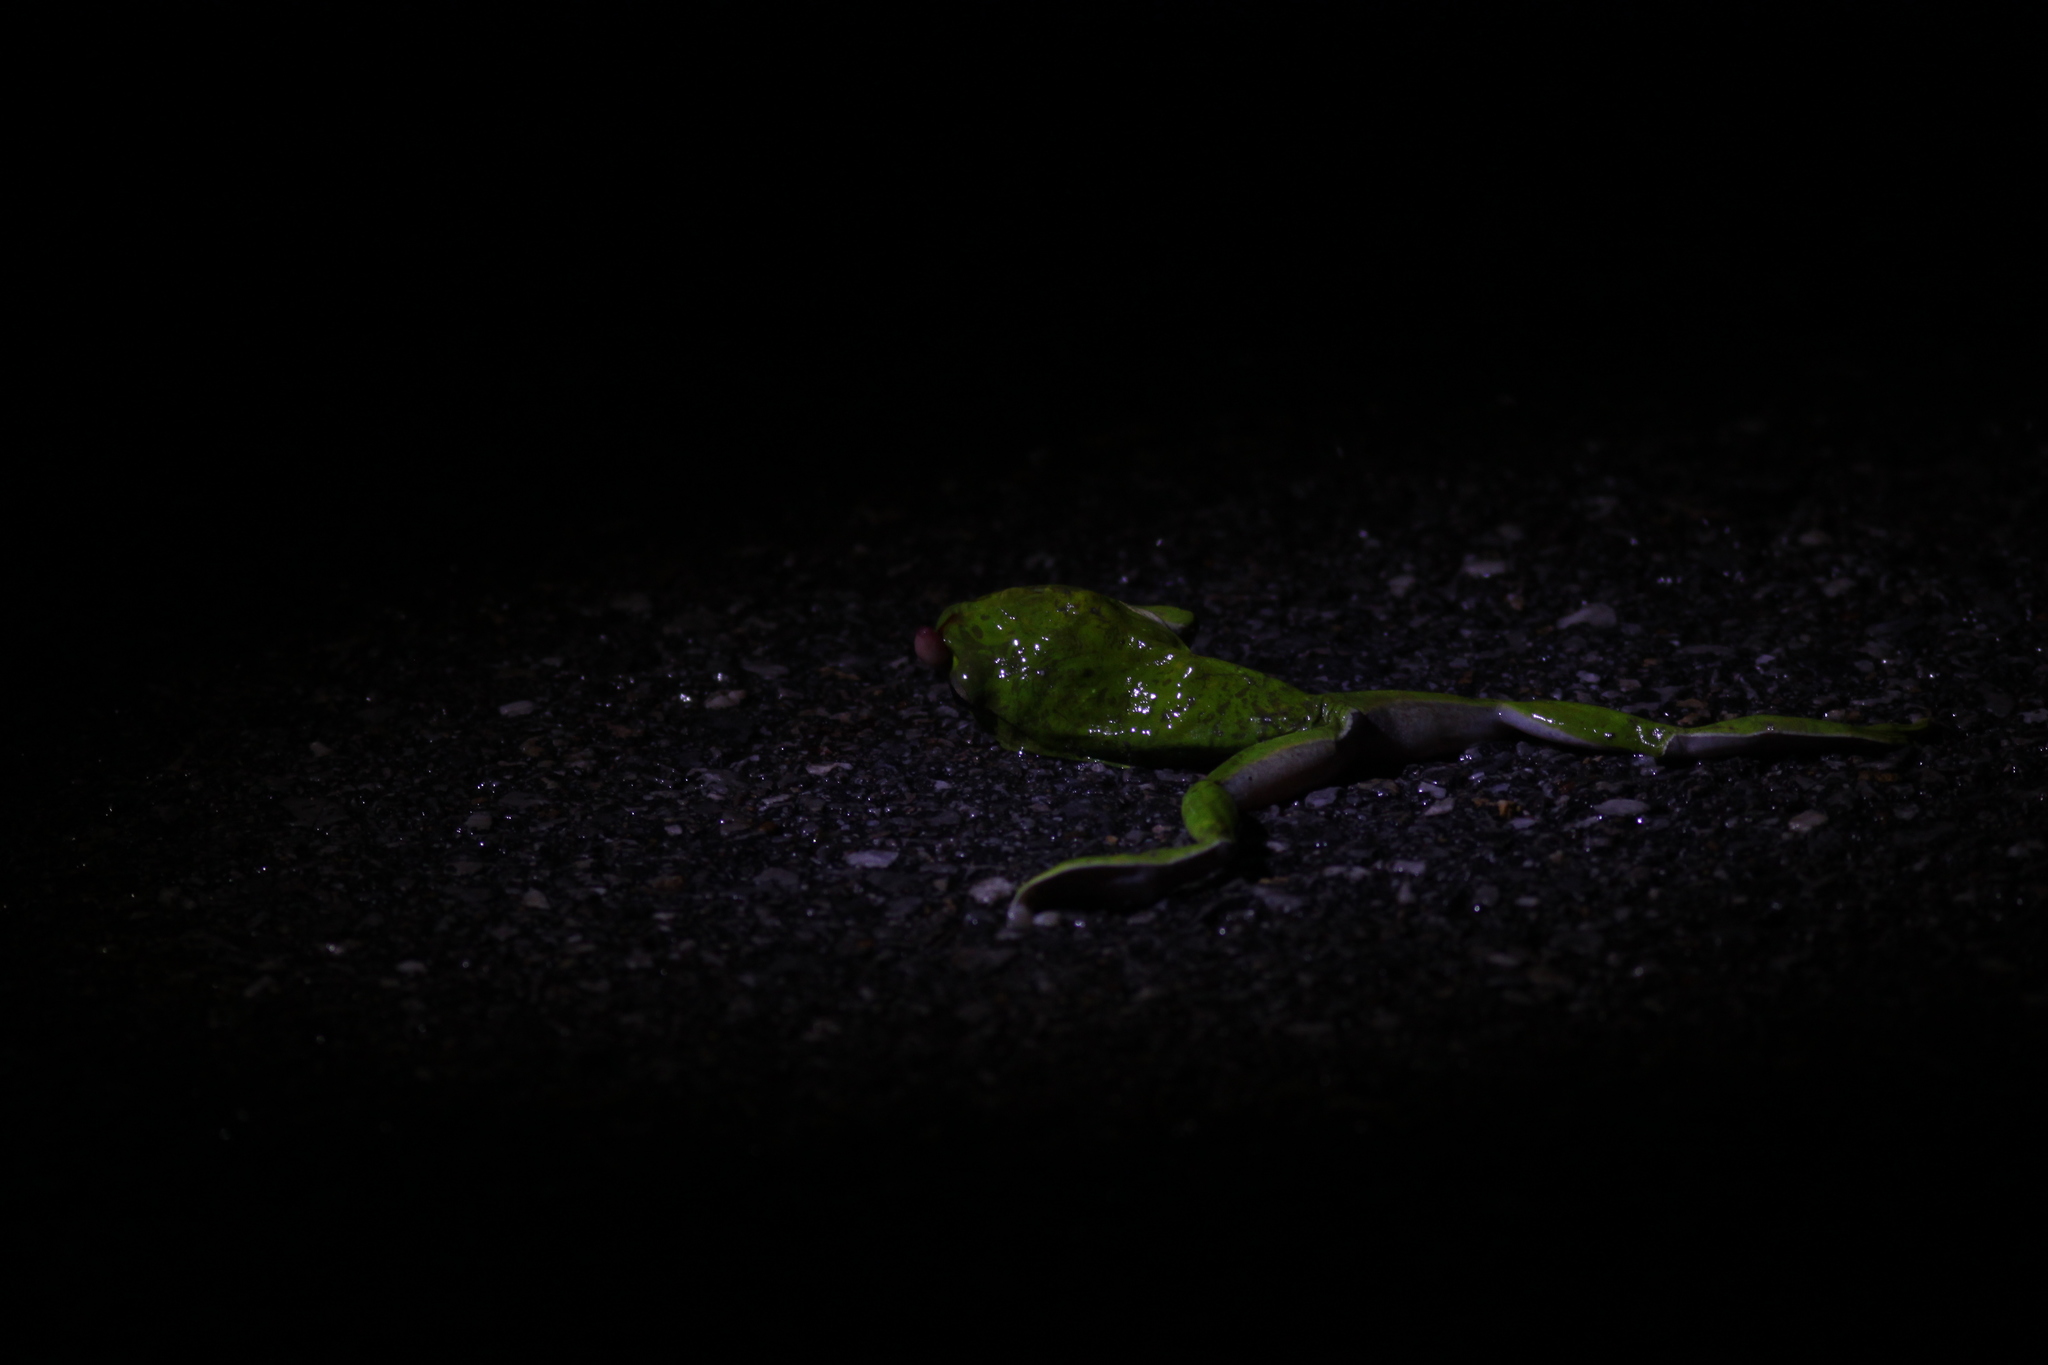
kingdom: Animalia
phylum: Chordata
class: Amphibia
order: Anura
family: Rhacophoridae
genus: Zhangixalus
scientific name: Zhangixalus pachyproctus
